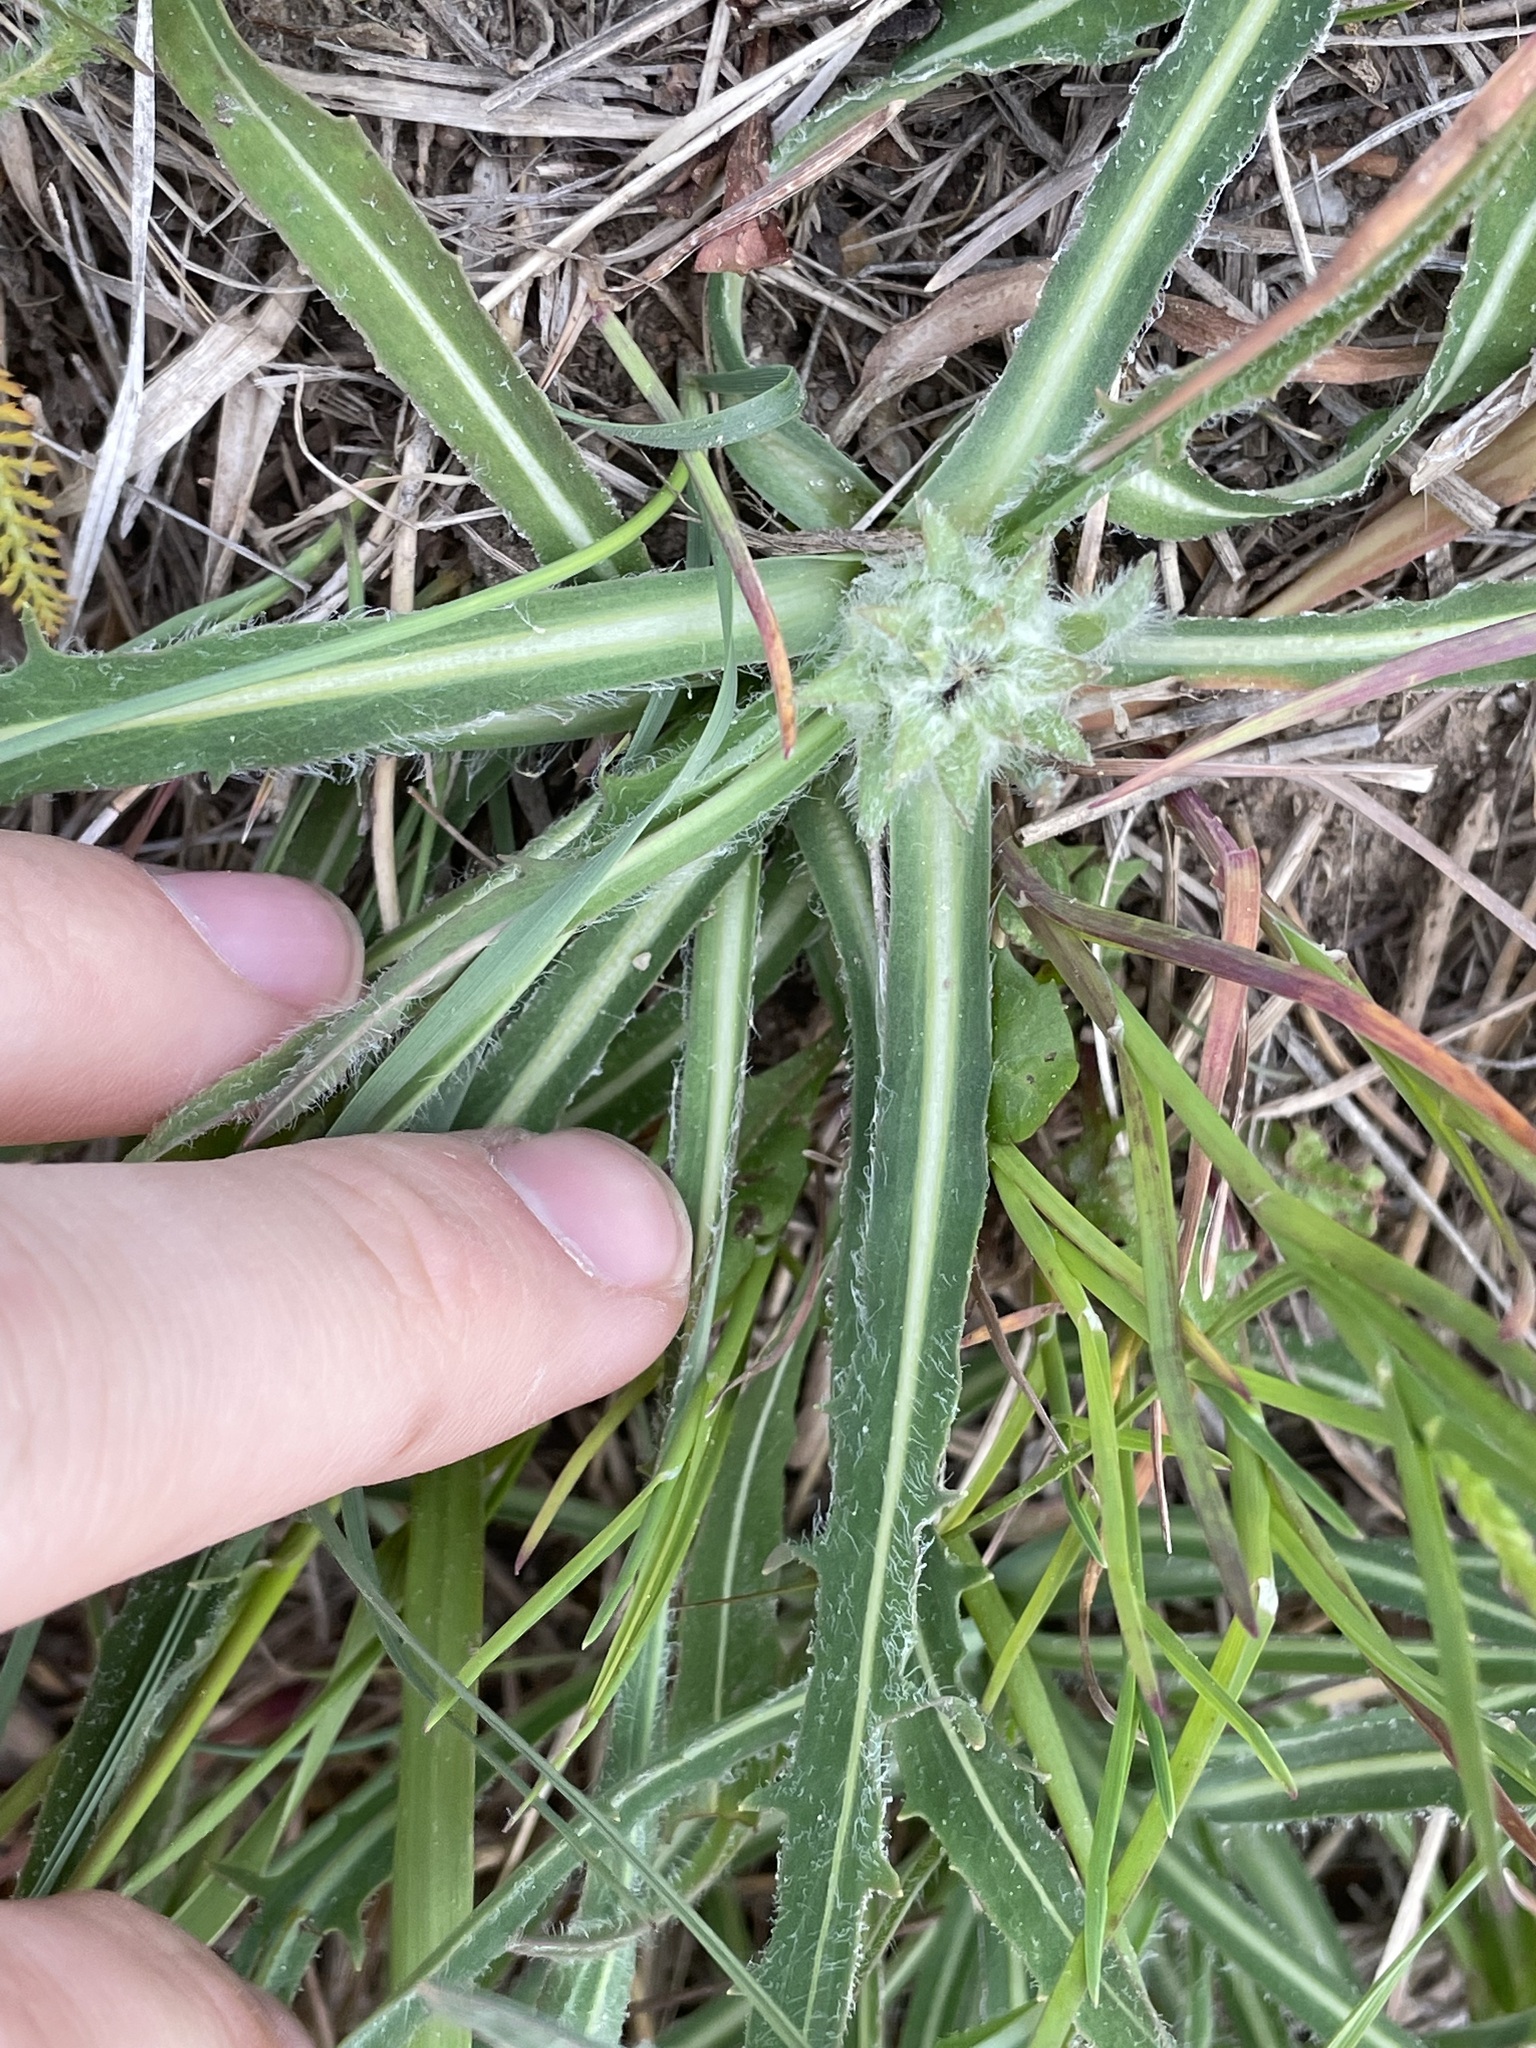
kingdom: Plantae
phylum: Tracheophyta
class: Magnoliopsida
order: Asterales
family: Asteraceae
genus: Agoseris
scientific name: Agoseris glauca
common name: Prairie agoseris
